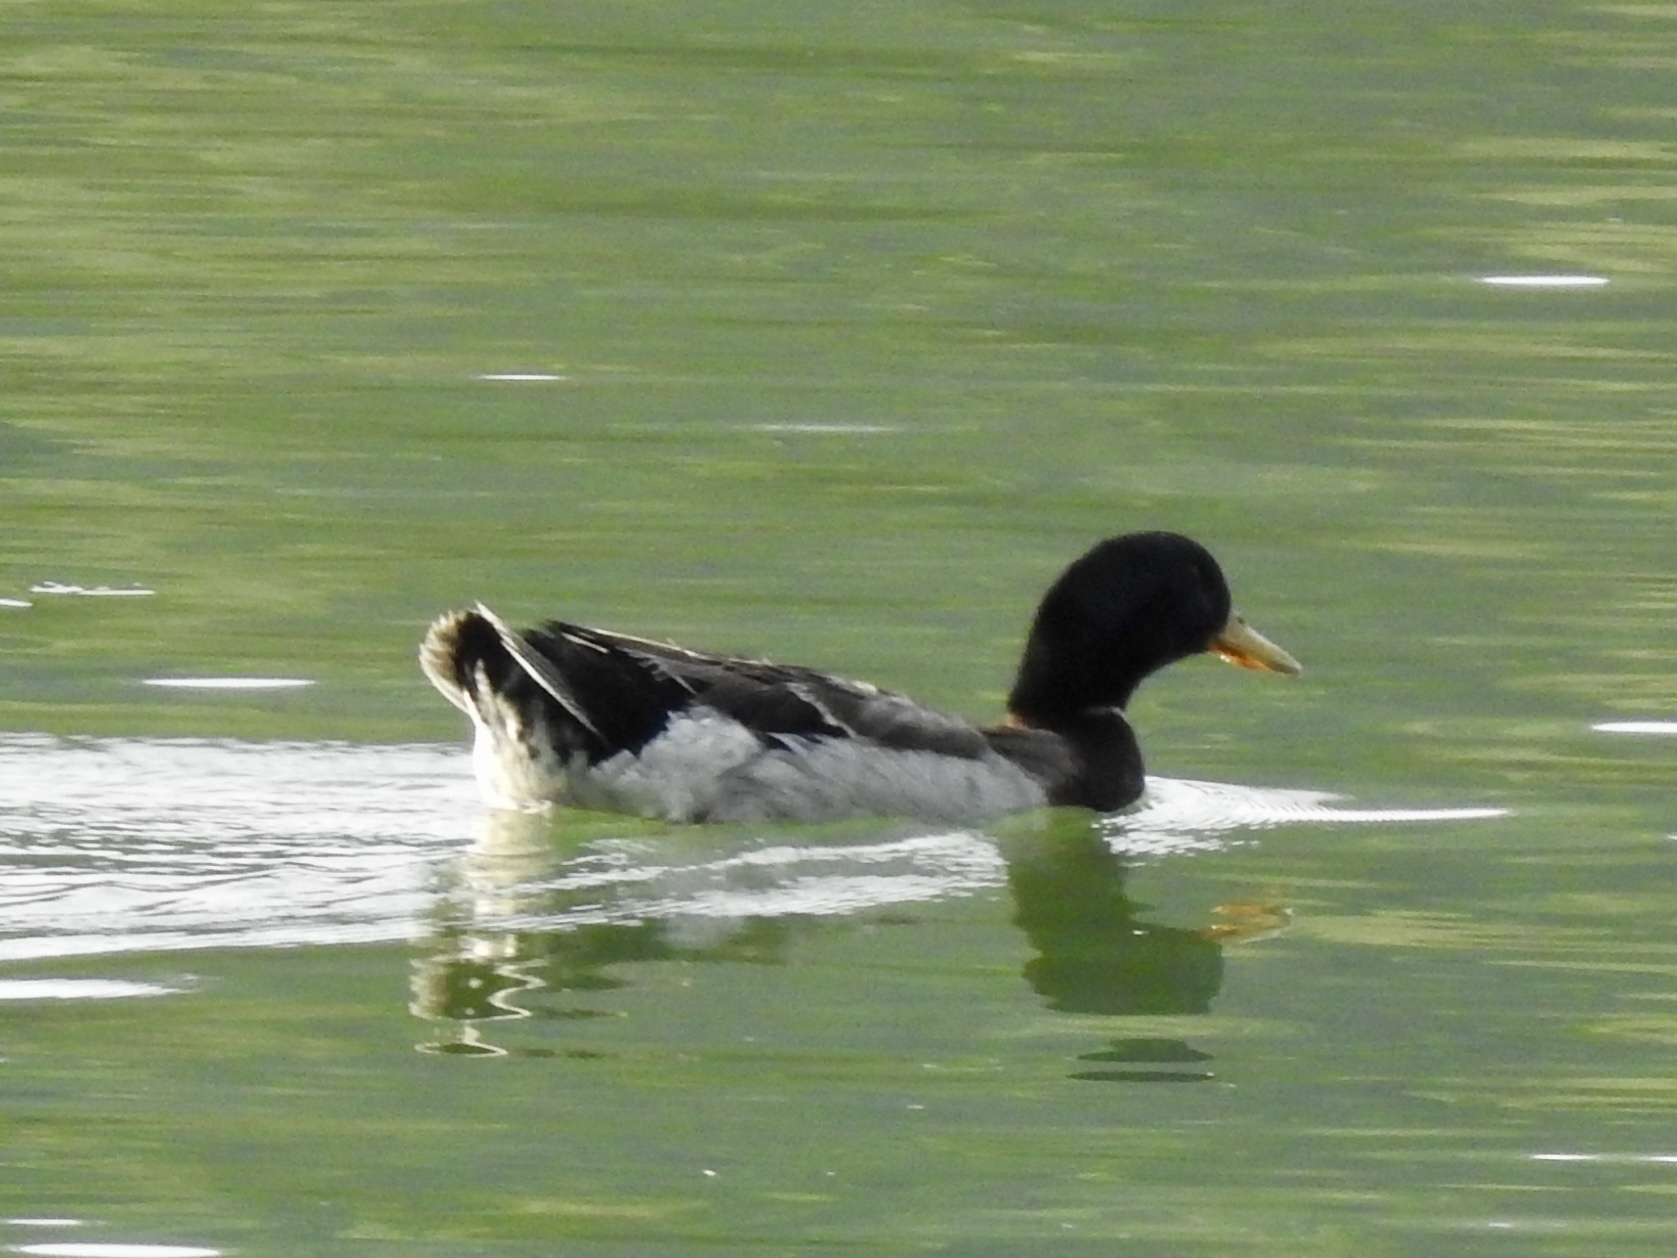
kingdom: Animalia
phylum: Chordata
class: Aves
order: Anseriformes
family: Anatidae
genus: Anas
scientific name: Anas platyrhynchos
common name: Mallard
